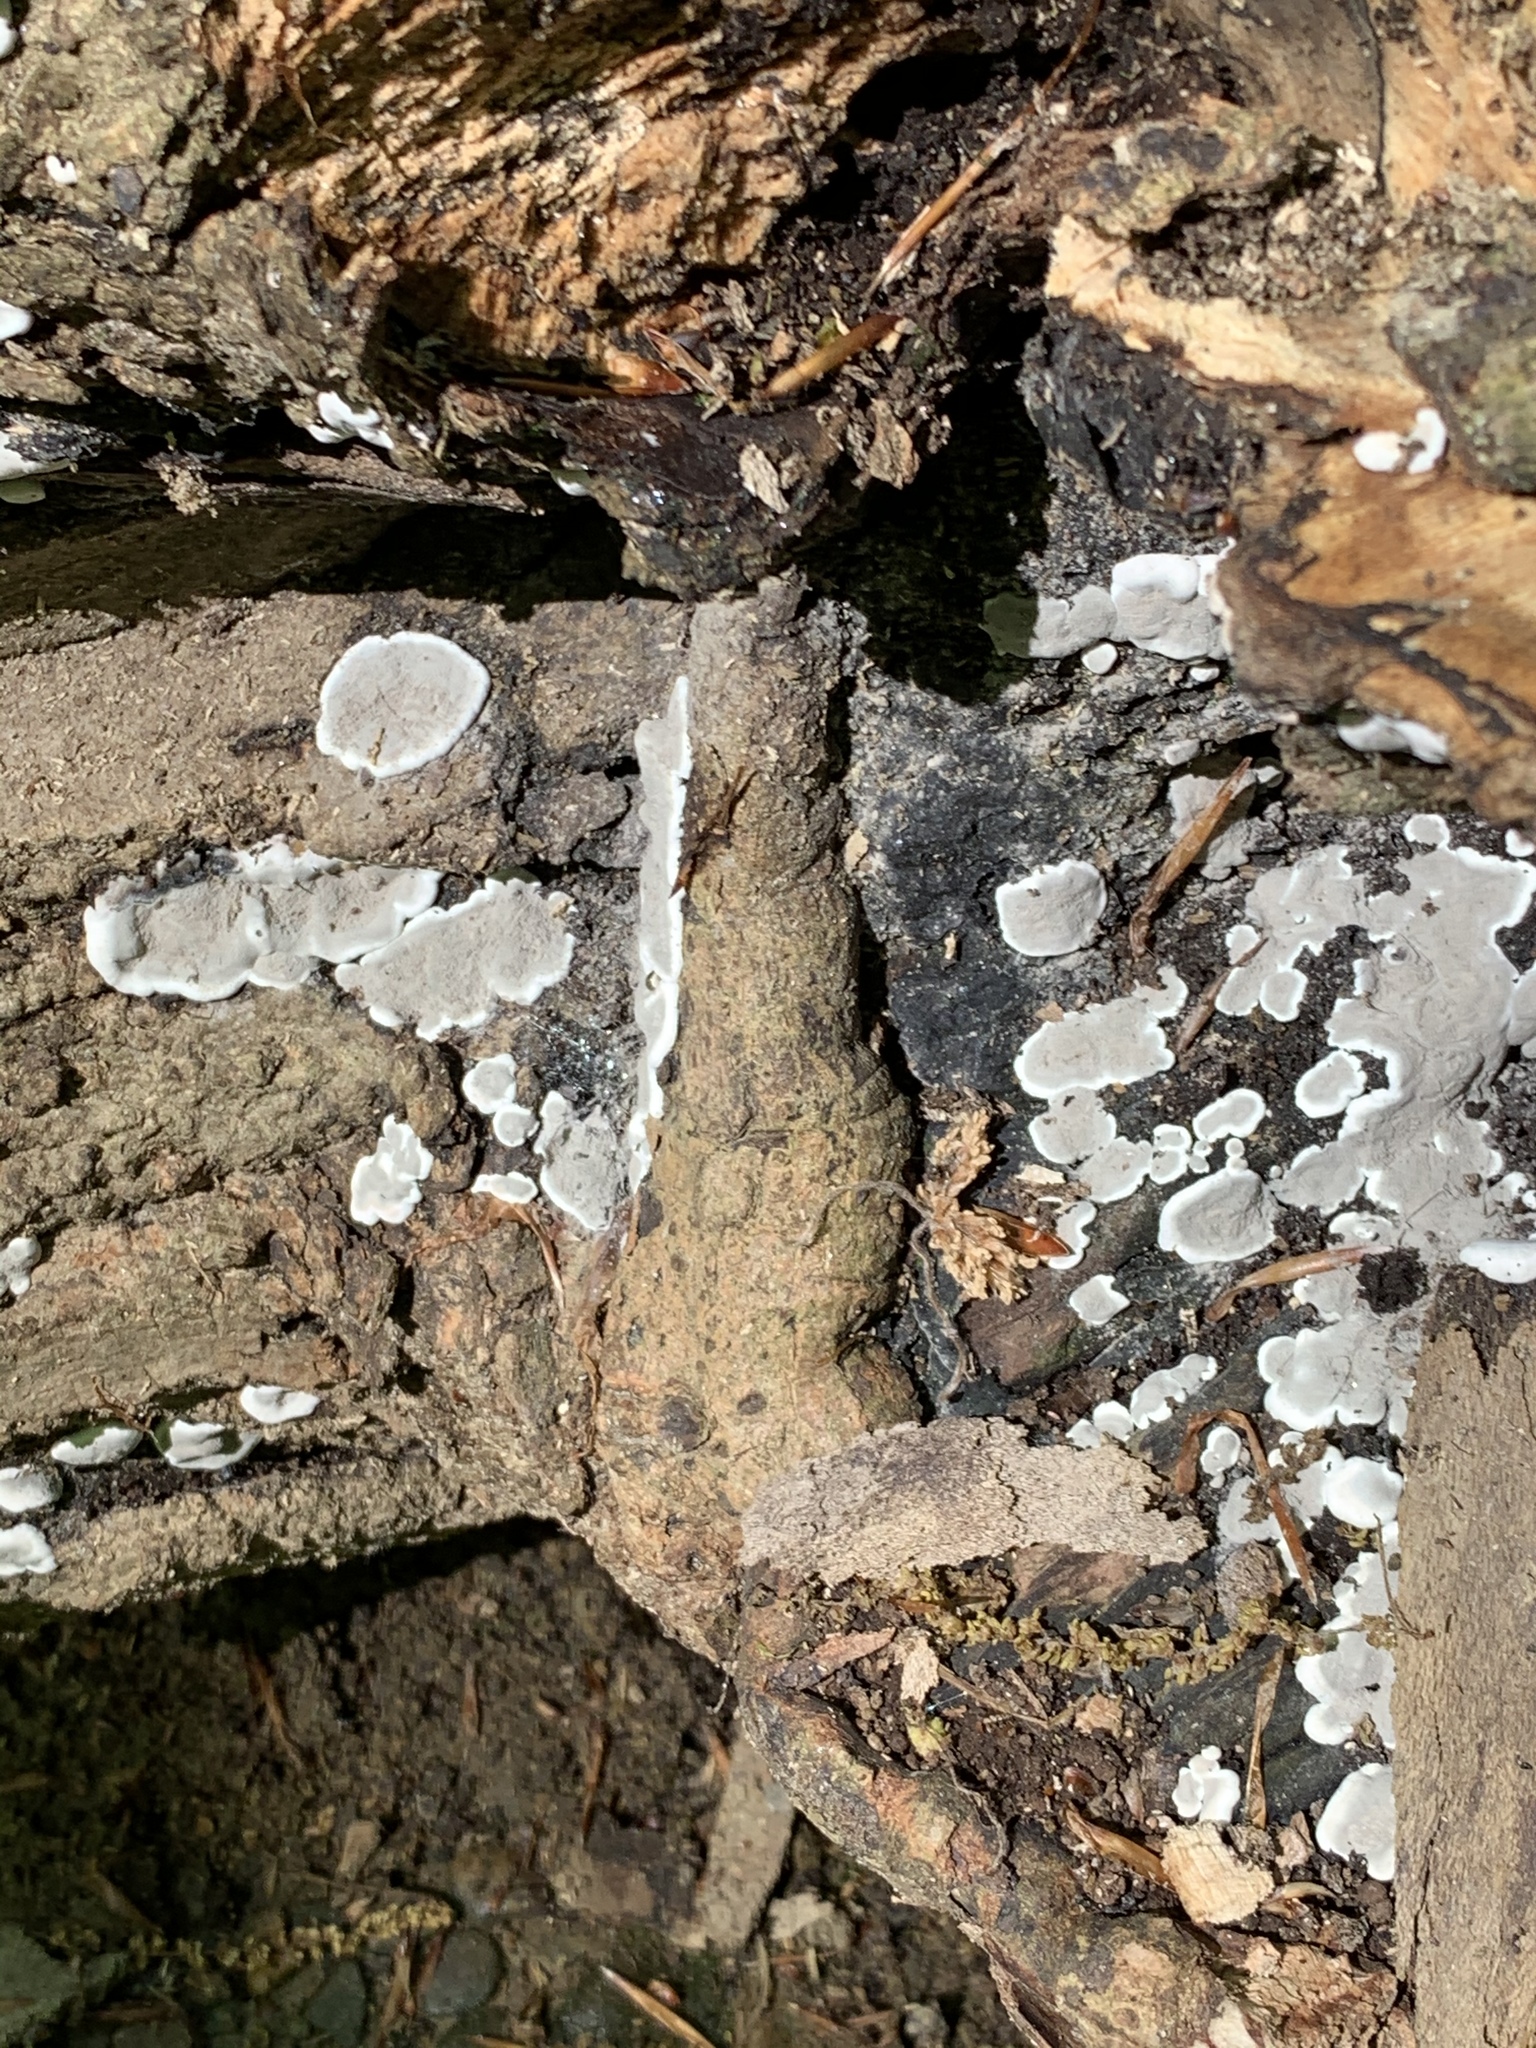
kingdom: Fungi
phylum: Ascomycota
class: Sordariomycetes
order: Xylariales
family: Xylariaceae
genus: Kretzschmaria
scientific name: Kretzschmaria deusta
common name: Brittle cinder
